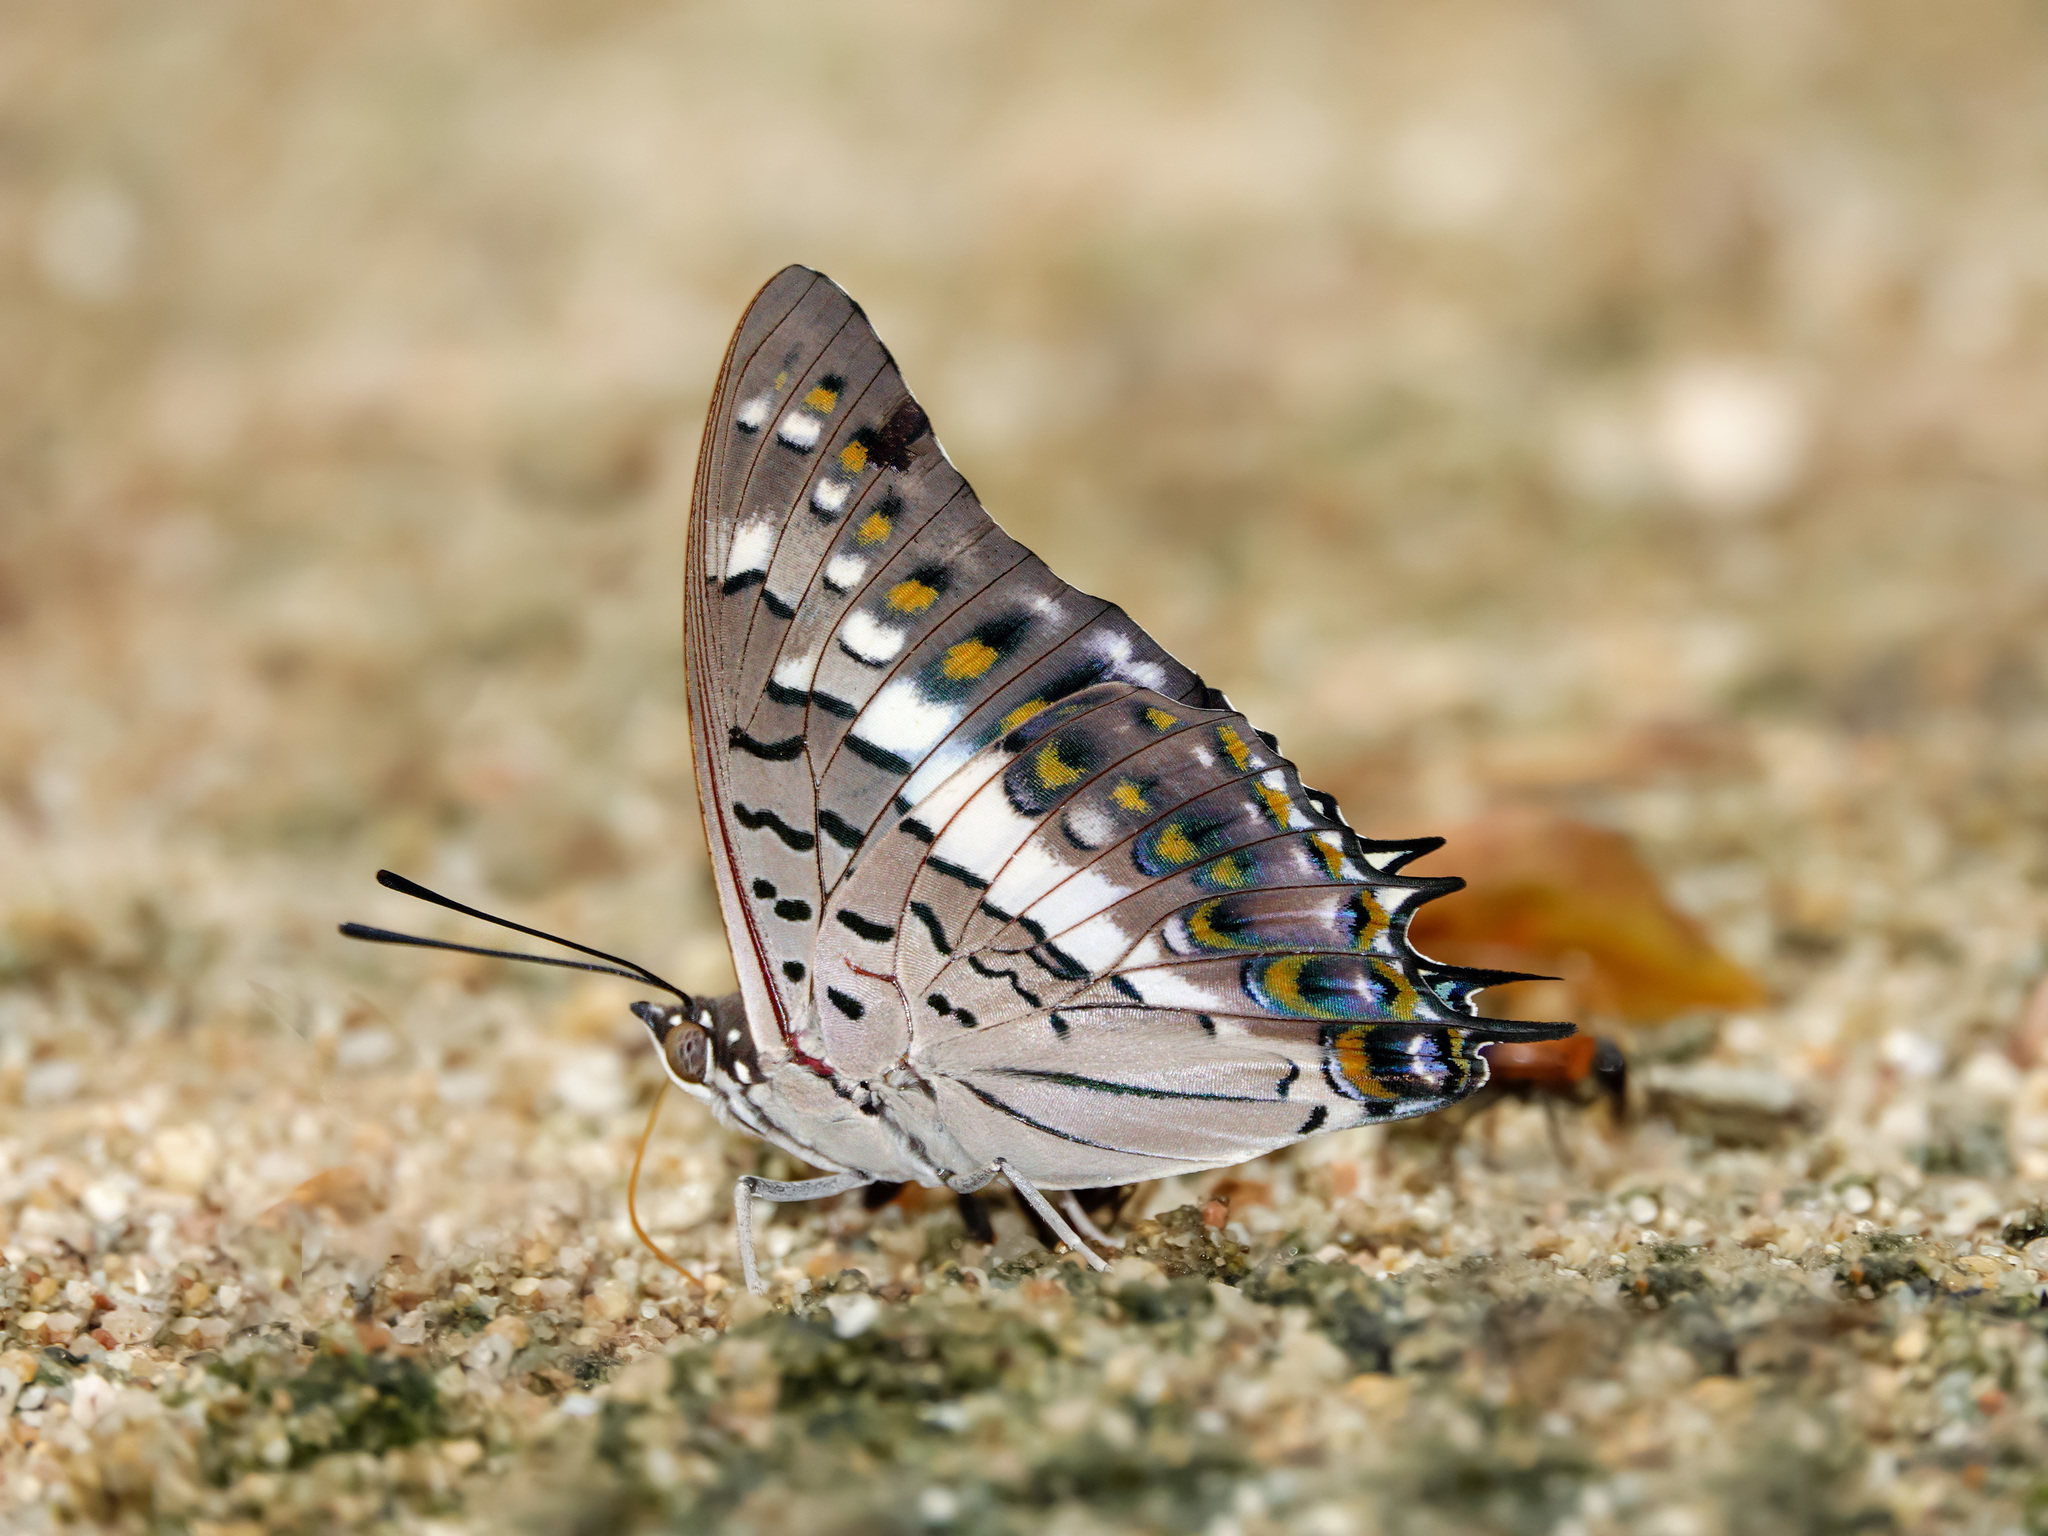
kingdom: Animalia
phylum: Arthropoda
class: Insecta
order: Lepidoptera
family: Nymphalidae
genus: Charaxes
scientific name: Charaxes solon
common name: Black rajah
